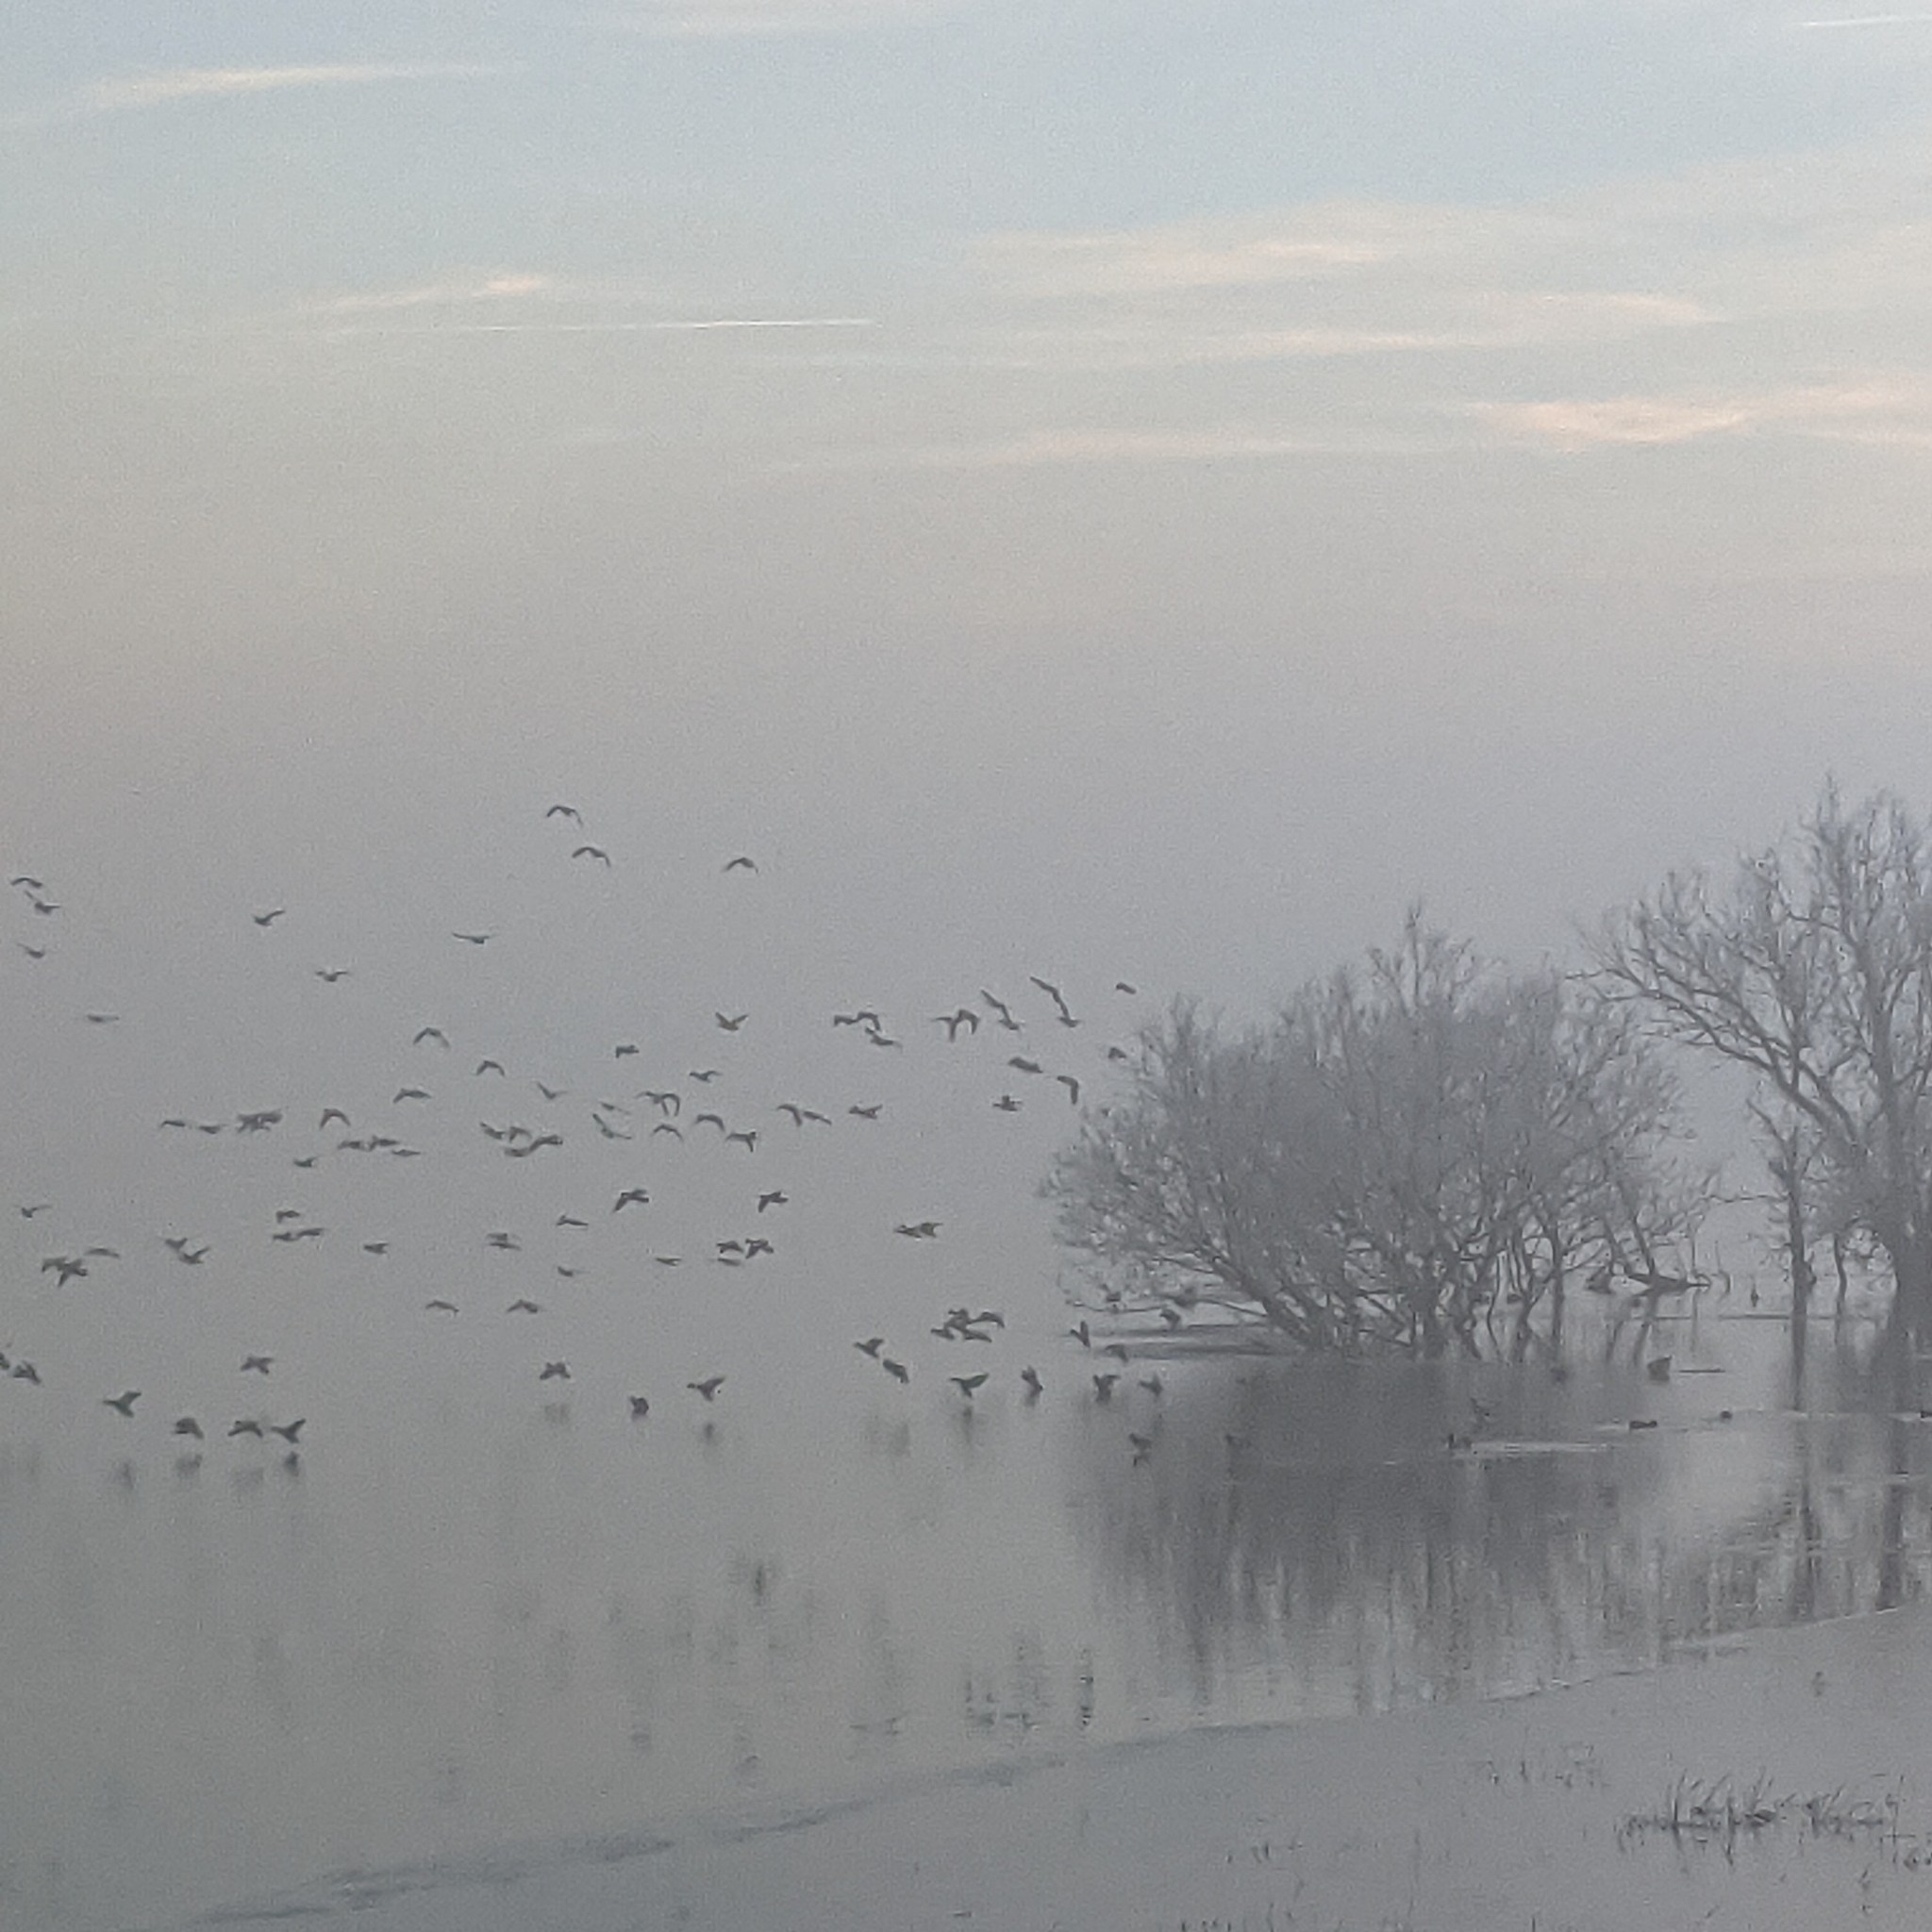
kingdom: Animalia
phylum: Chordata
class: Aves
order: Anseriformes
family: Anatidae
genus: Mareca
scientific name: Mareca penelope
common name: Eurasian wigeon
